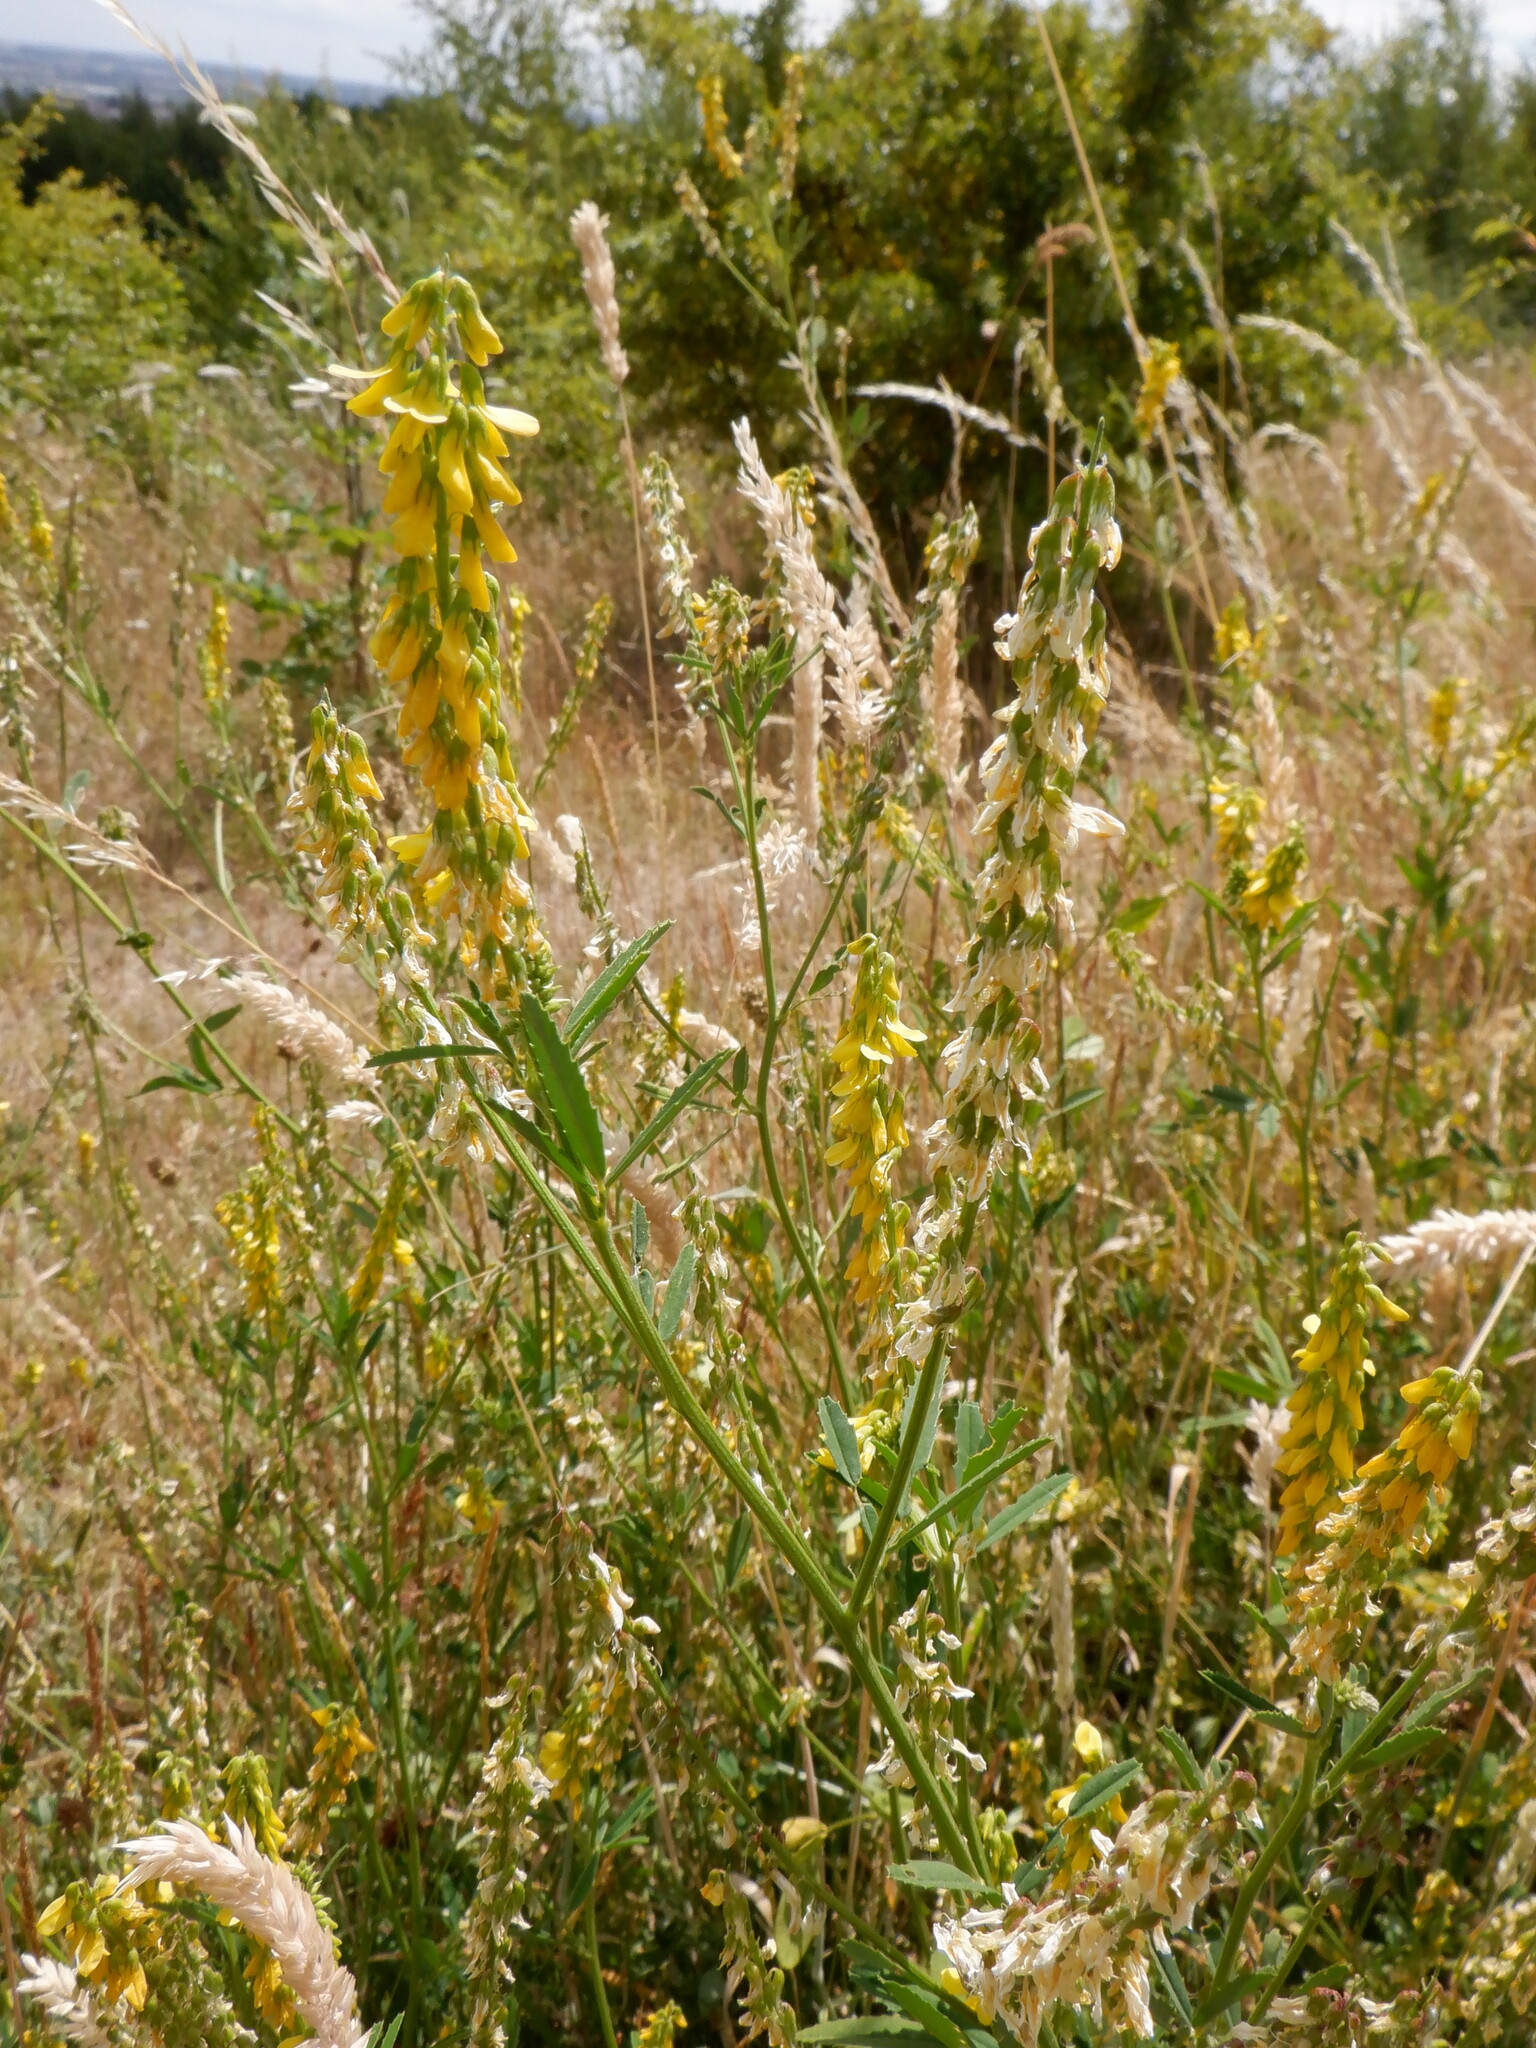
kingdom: Plantae
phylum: Tracheophyta
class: Magnoliopsida
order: Fabales
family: Fabaceae
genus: Melilotus
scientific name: Melilotus officinalis
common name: Sweetclover
